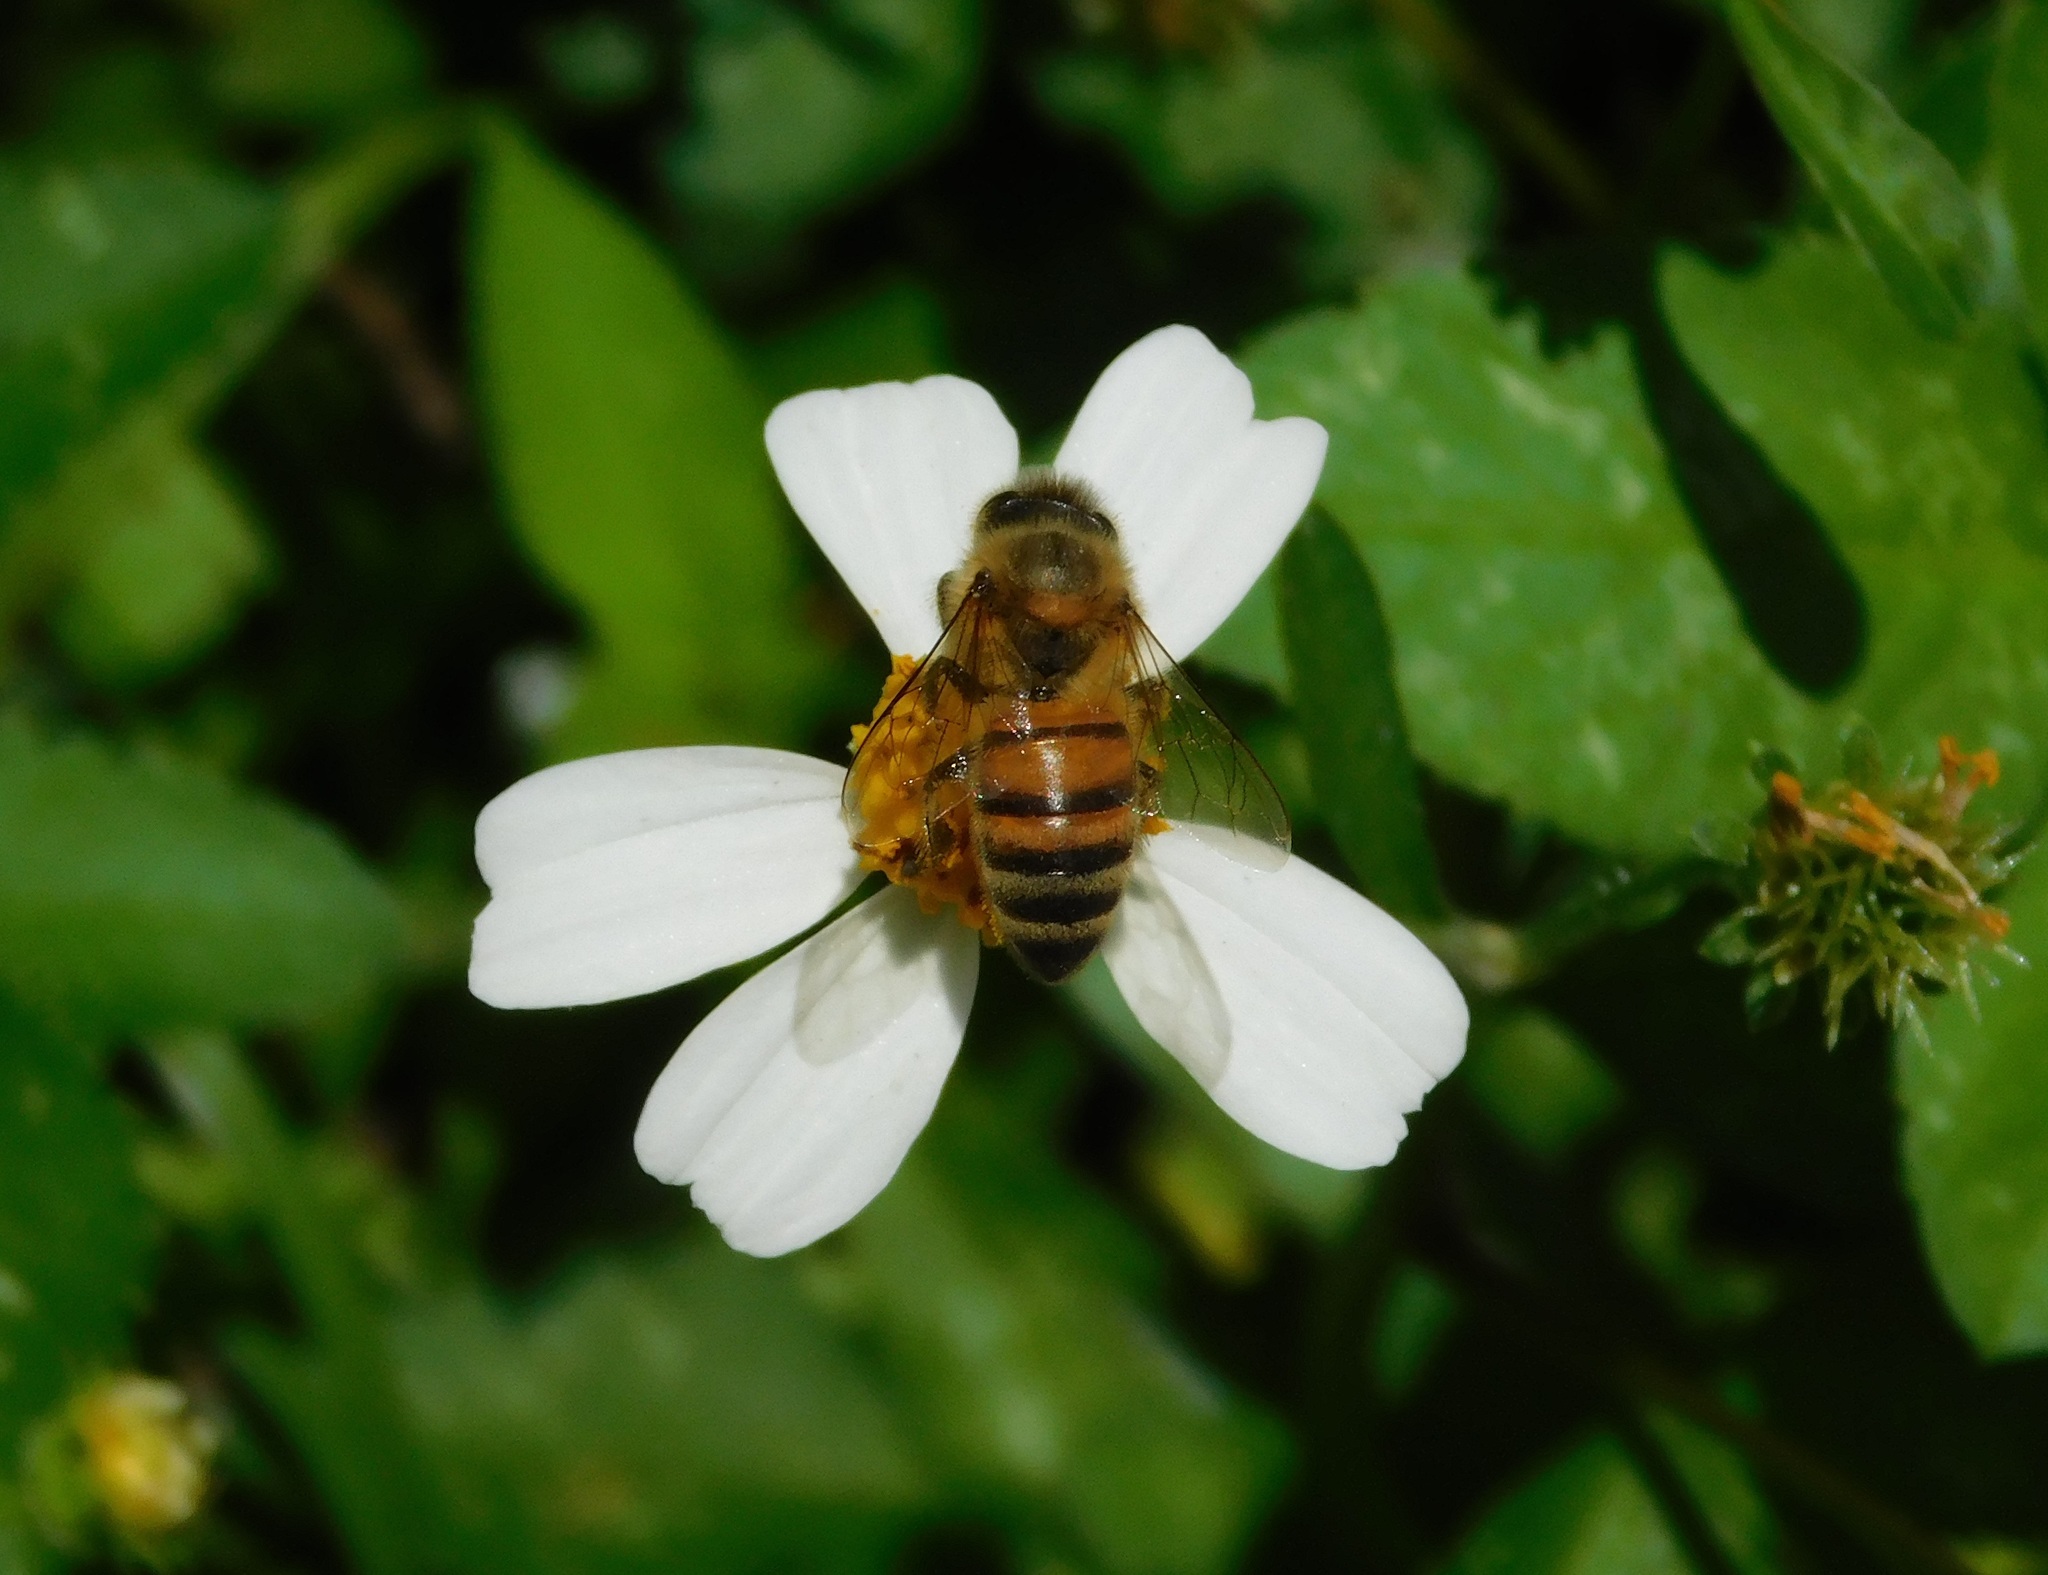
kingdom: Animalia
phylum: Arthropoda
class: Insecta
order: Hymenoptera
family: Apidae
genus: Apis
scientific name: Apis mellifera
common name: Honey bee
